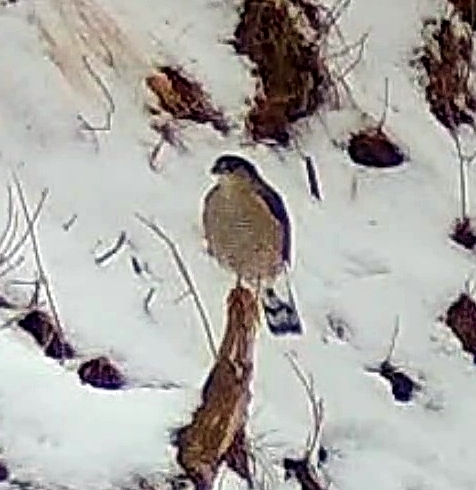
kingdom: Animalia
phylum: Chordata
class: Aves
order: Accipitriformes
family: Accipitridae
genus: Accipiter
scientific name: Accipiter striatus
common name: Sharp-shinned hawk
